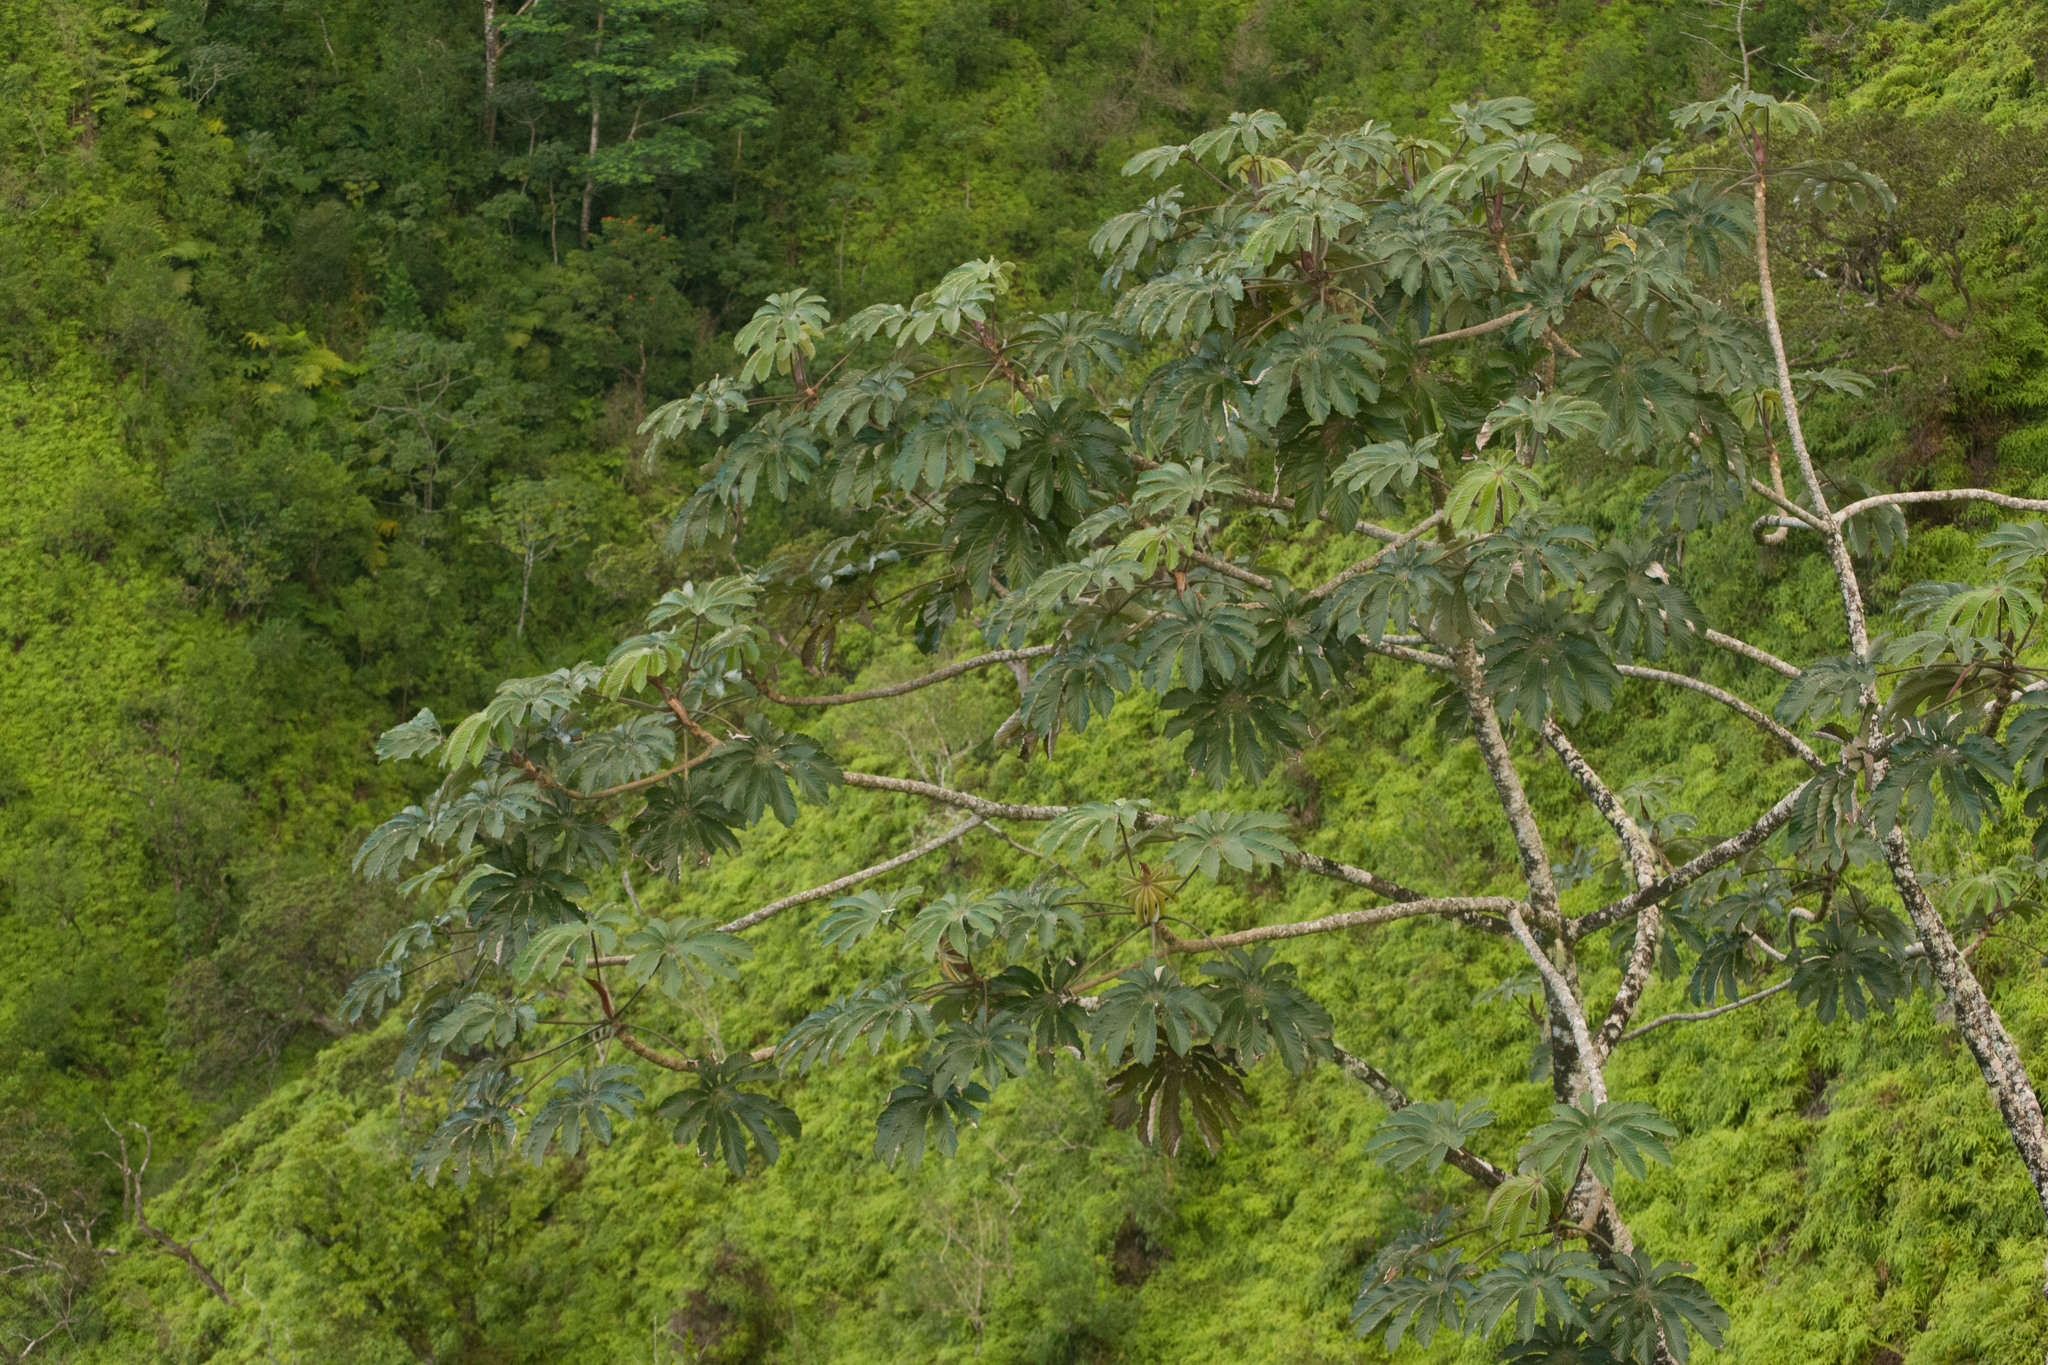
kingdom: Plantae
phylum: Tracheophyta
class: Magnoliopsida
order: Rosales
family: Urticaceae
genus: Cecropia
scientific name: Cecropia obtusifolia
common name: Trumpet tree
